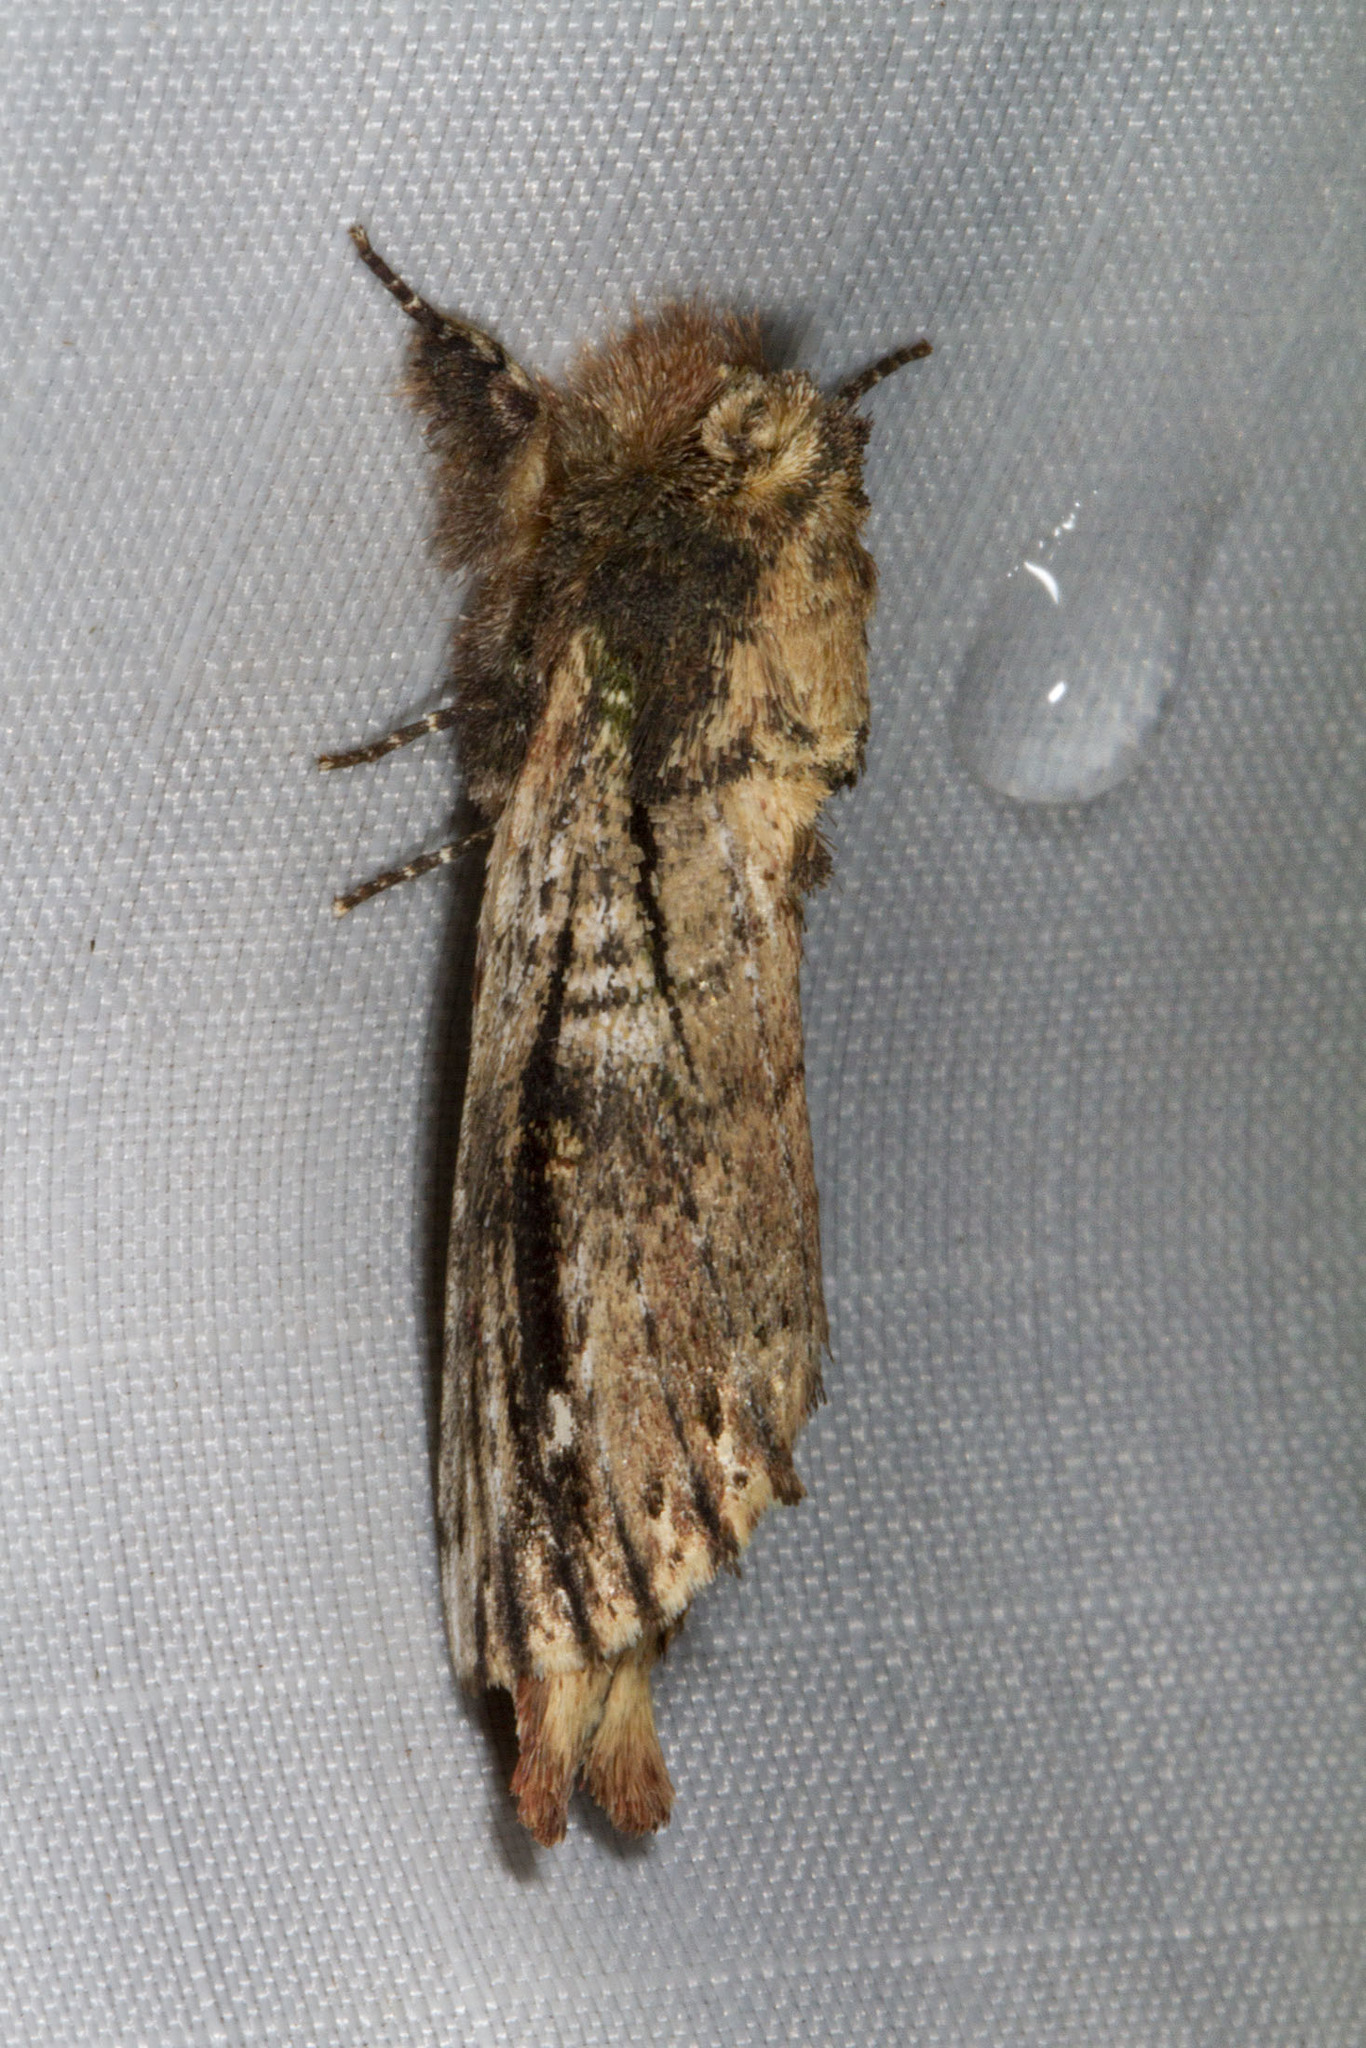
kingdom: Animalia
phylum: Arthropoda
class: Insecta
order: Lepidoptera
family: Notodontidae
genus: Schizura
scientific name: Schizura ipomaeae
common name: Morning-glory prominent
